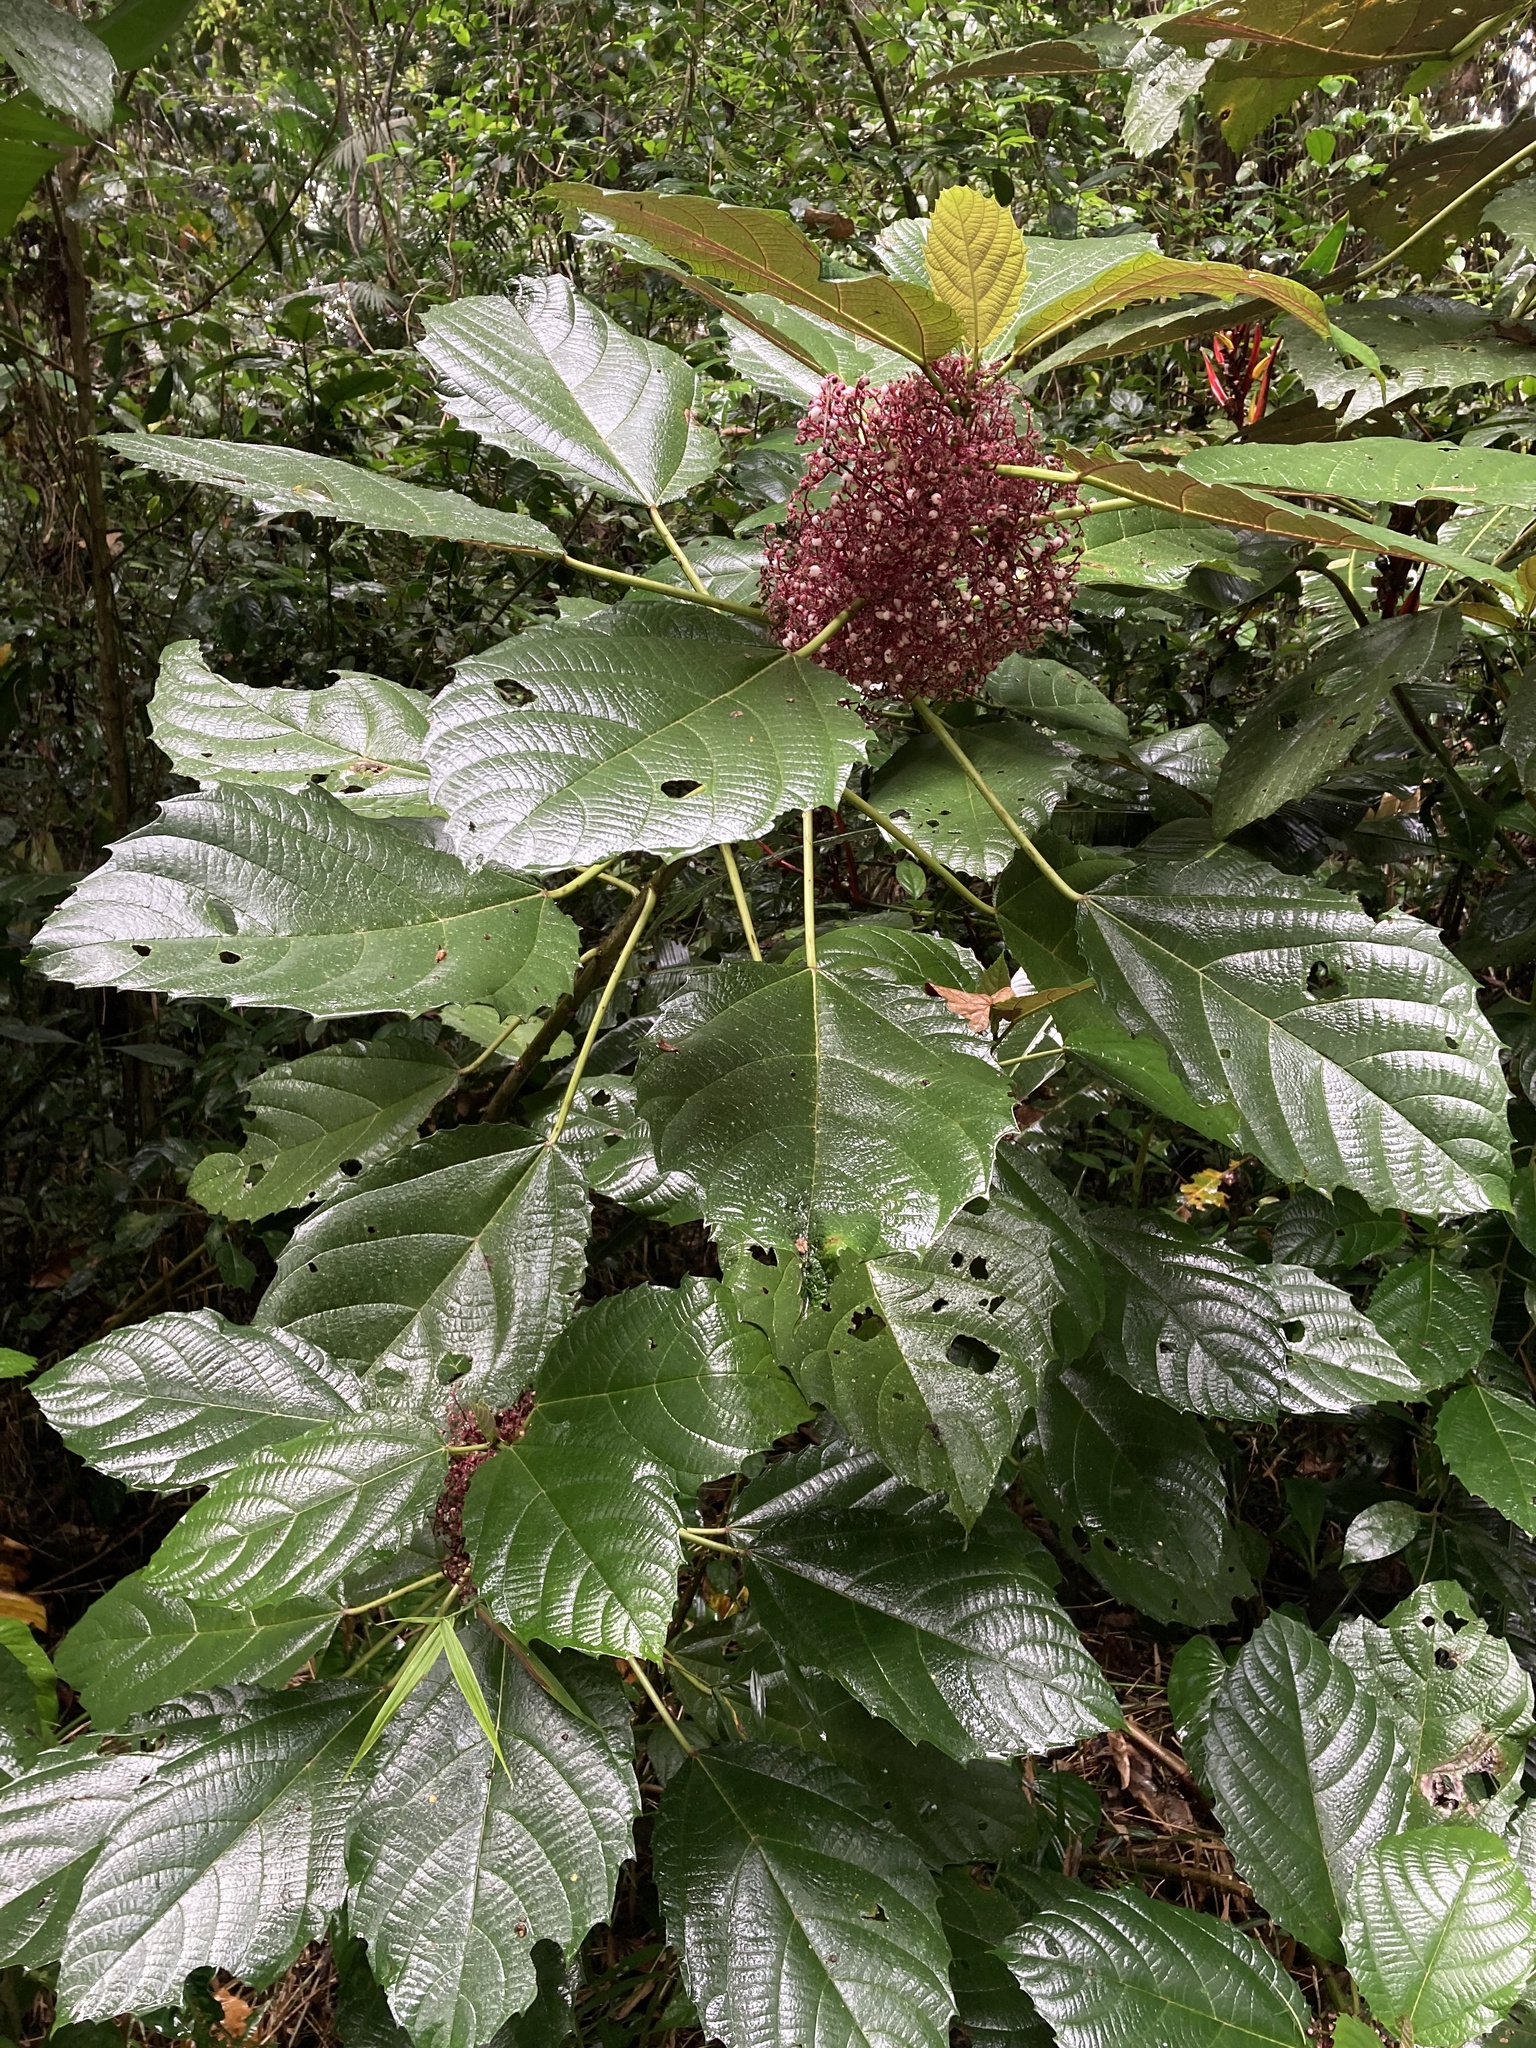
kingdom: Plantae
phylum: Tracheophyta
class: Magnoliopsida
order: Rosales
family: Urticaceae
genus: Urera
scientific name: Urera baccifera
